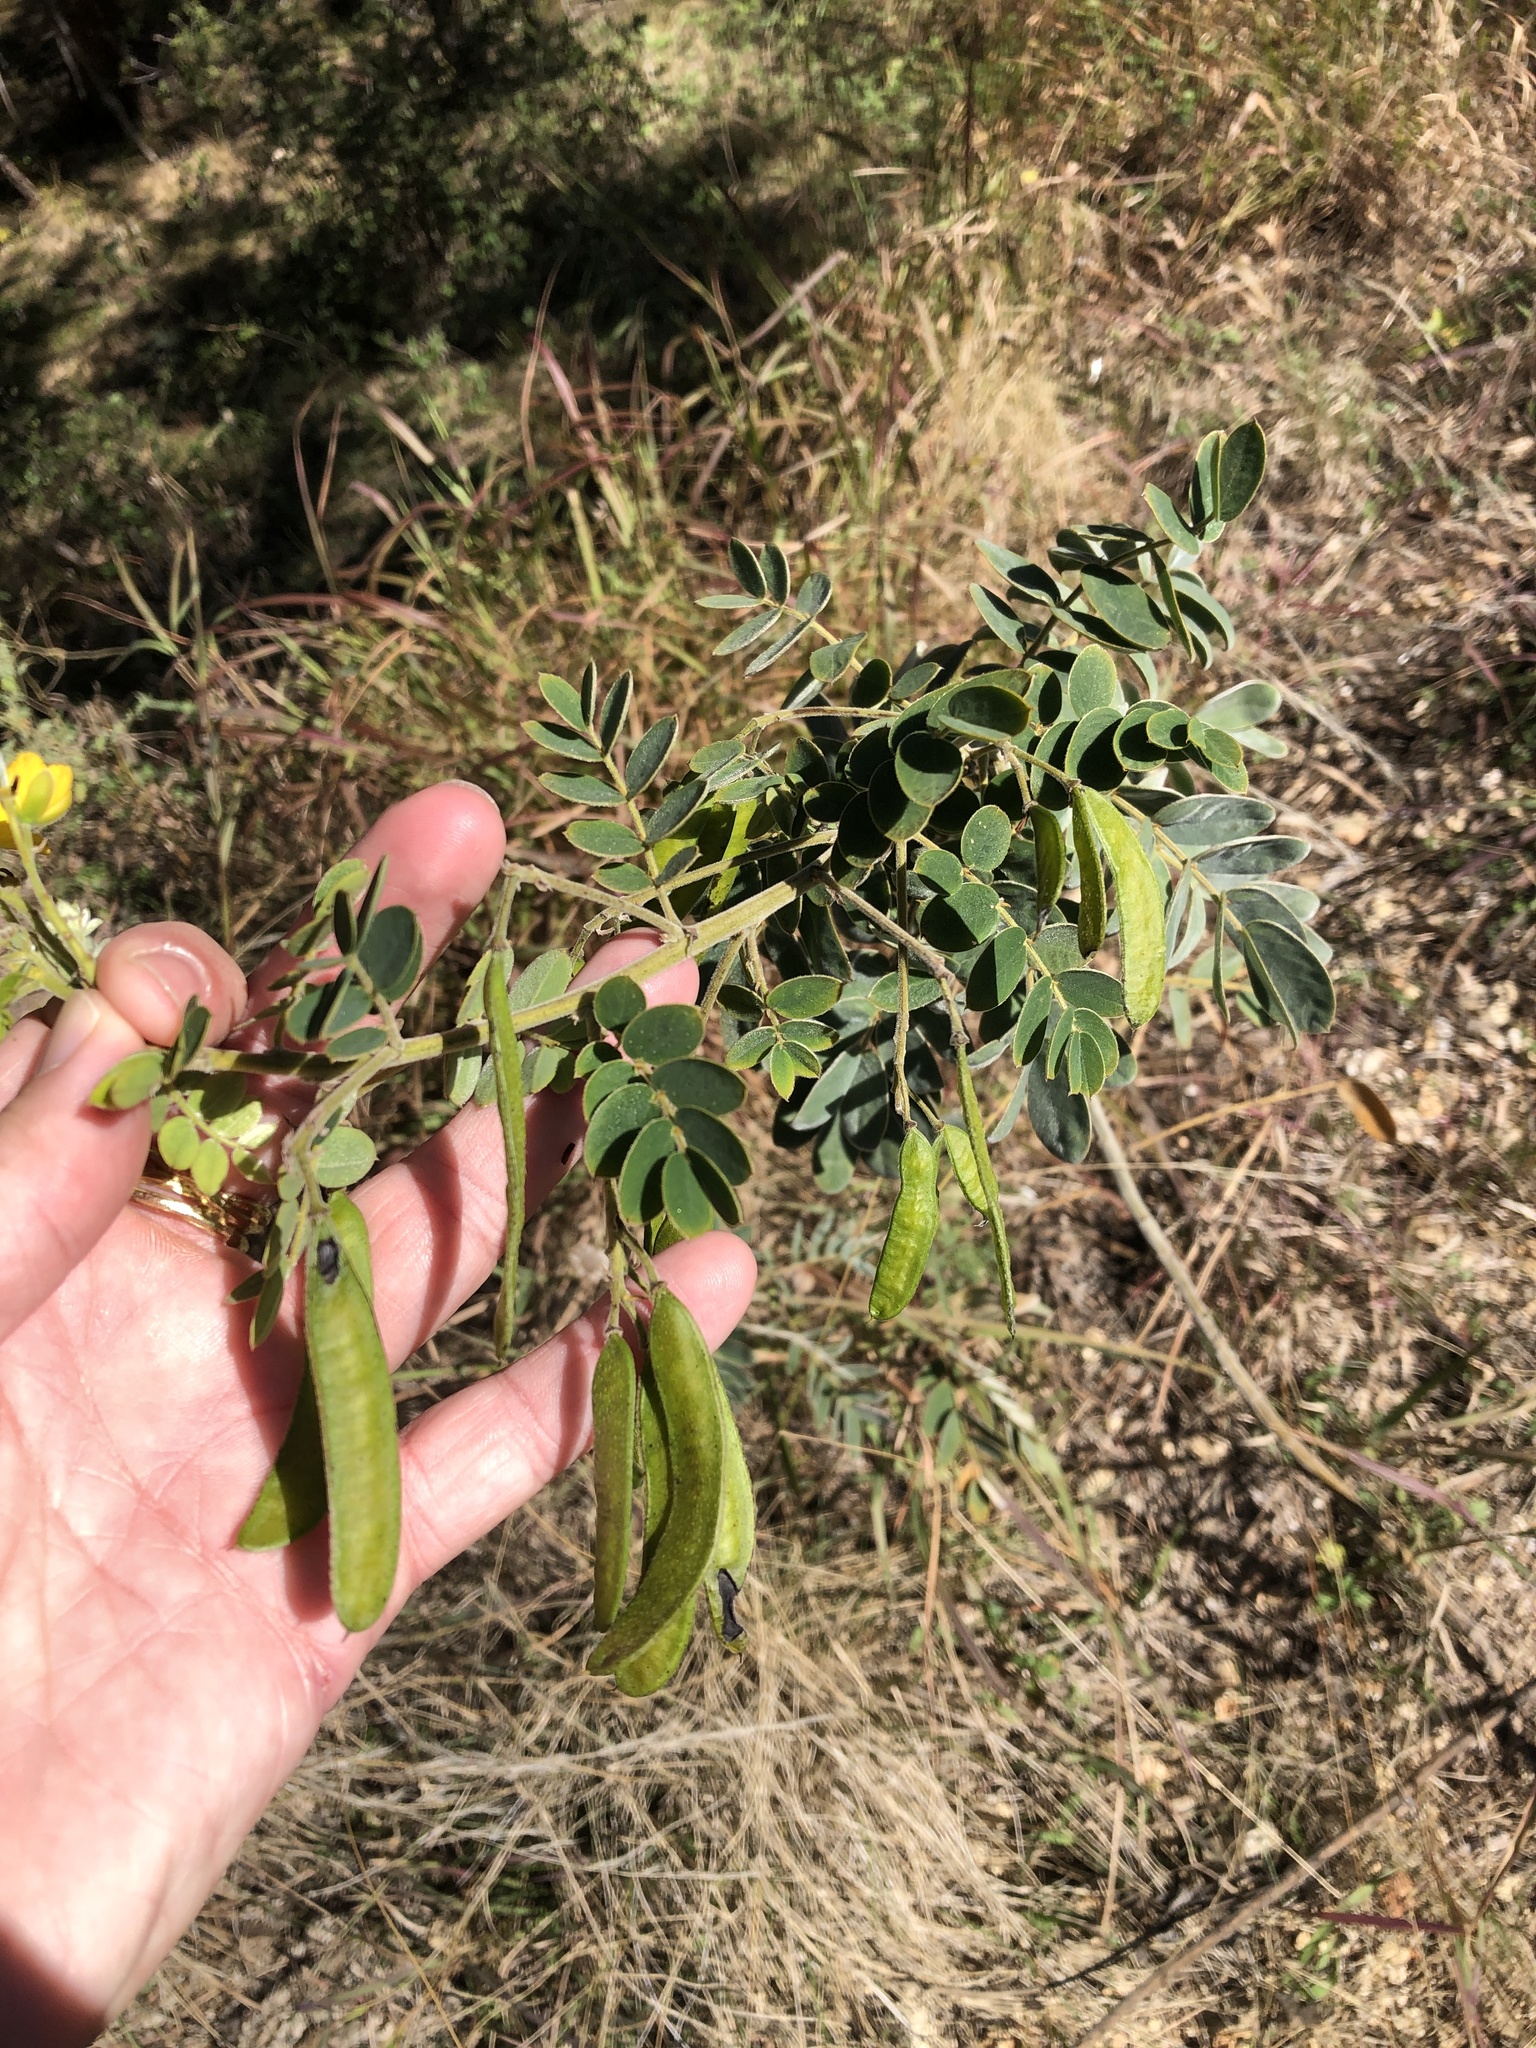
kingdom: Plantae
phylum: Tracheophyta
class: Magnoliopsida
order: Fabales
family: Fabaceae
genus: Senna
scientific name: Senna lindheimeriana
